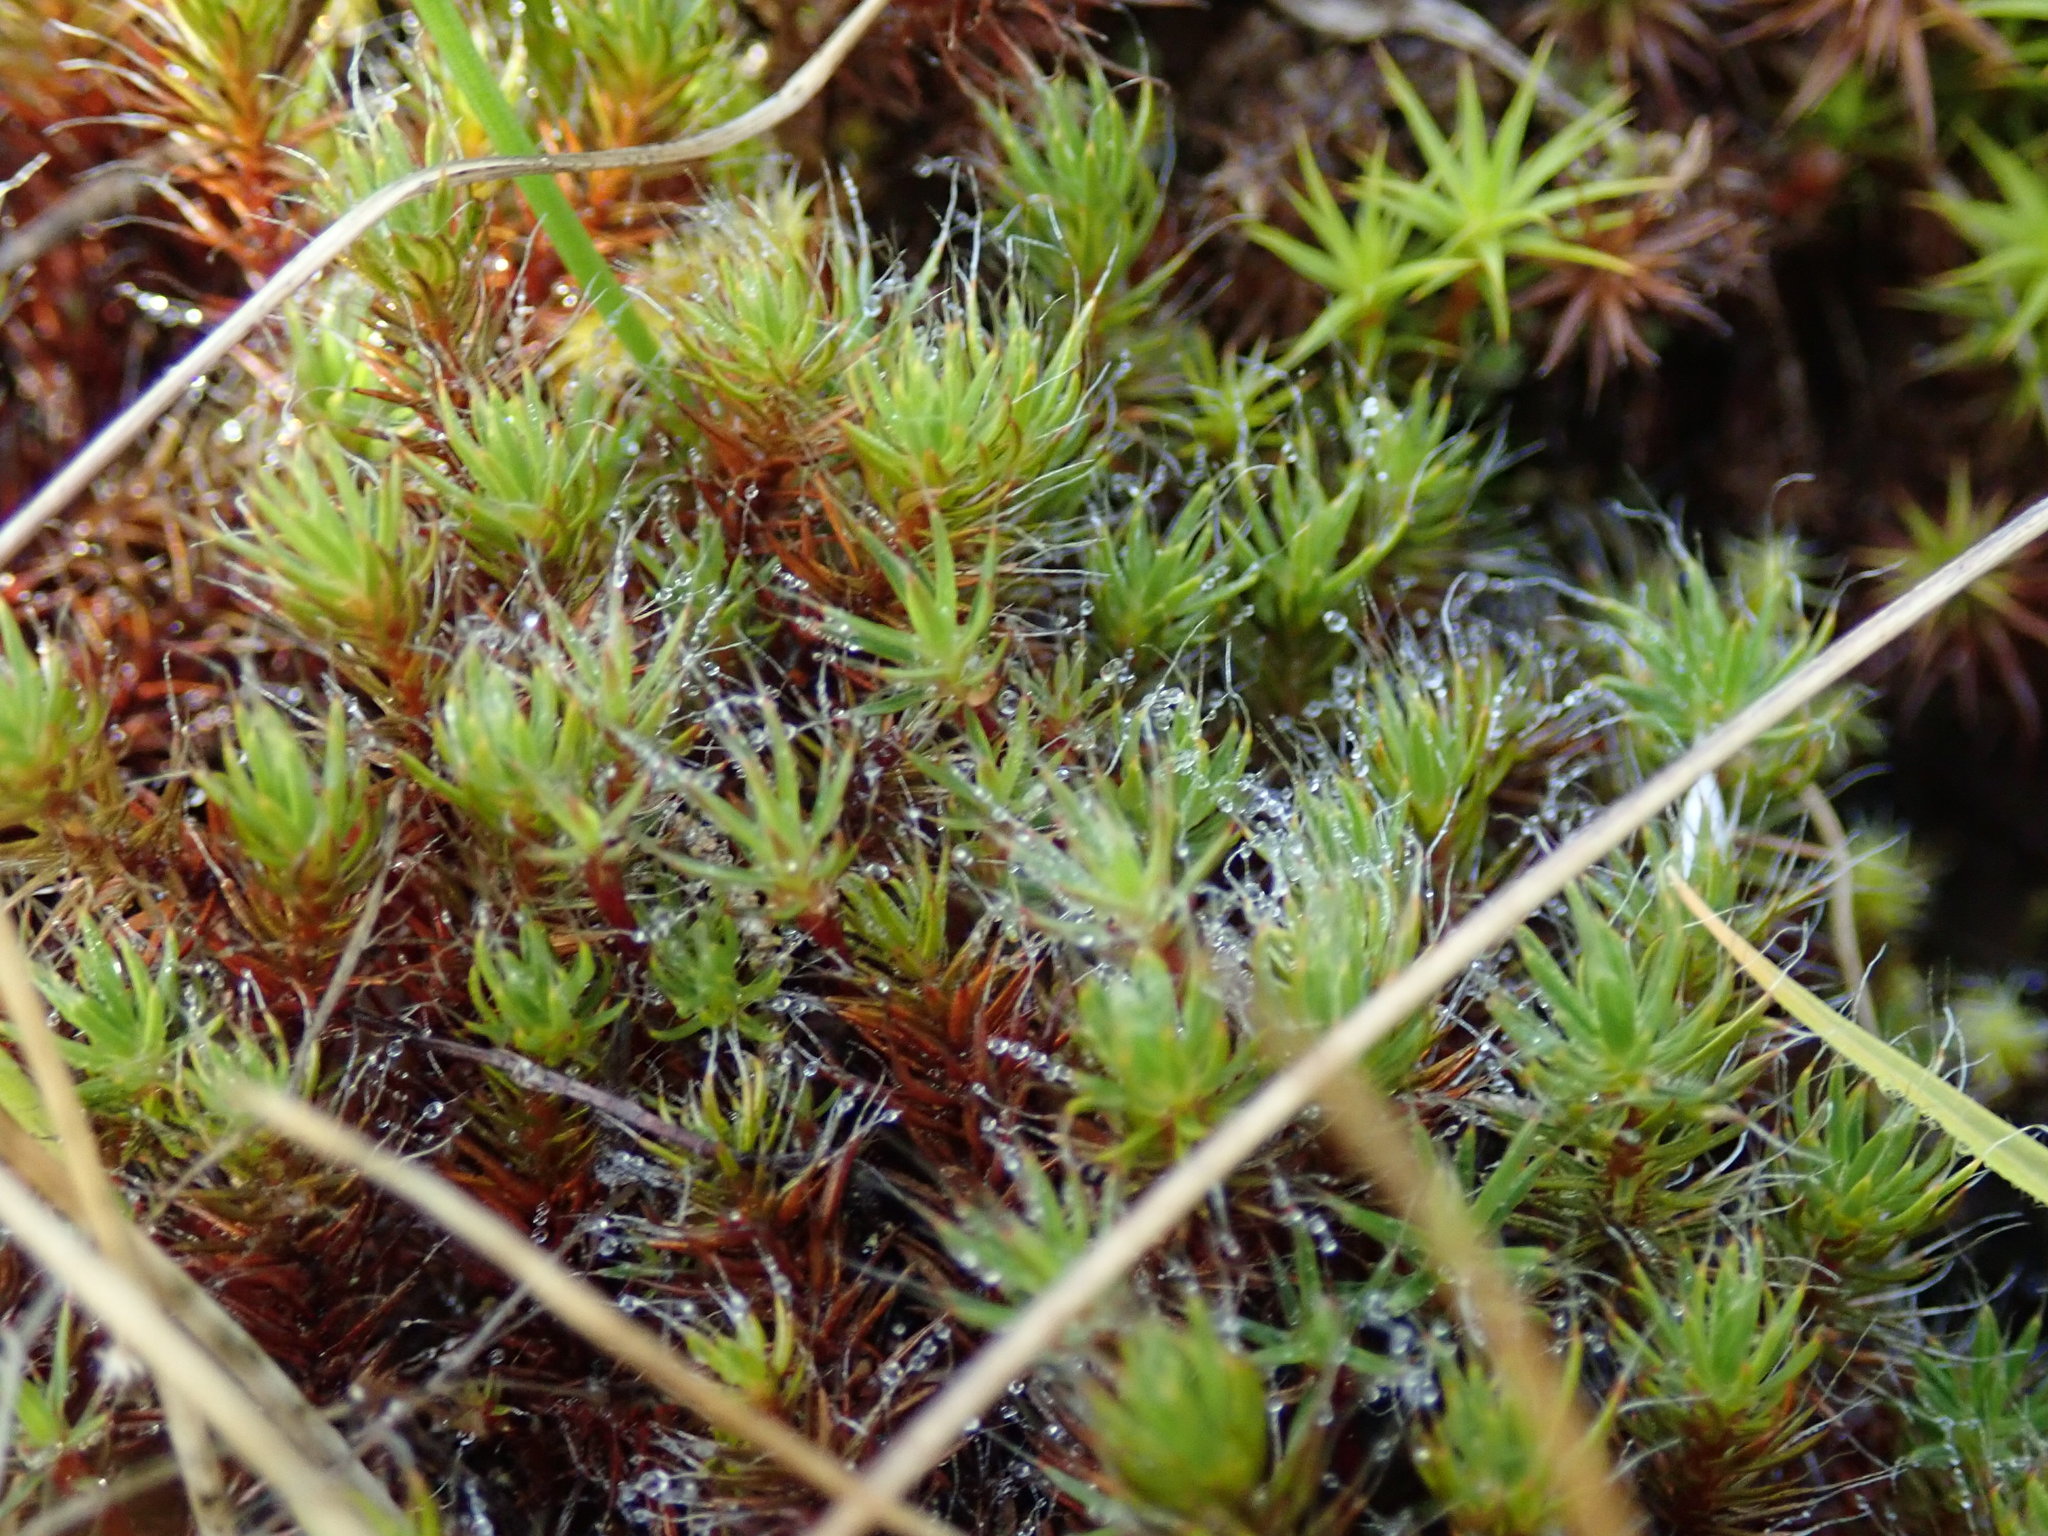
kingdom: Plantae
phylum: Bryophyta
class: Polytrichopsida
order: Polytrichales
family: Polytrichaceae
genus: Polytrichum
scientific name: Polytrichum piliferum
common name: Bristly haircap
